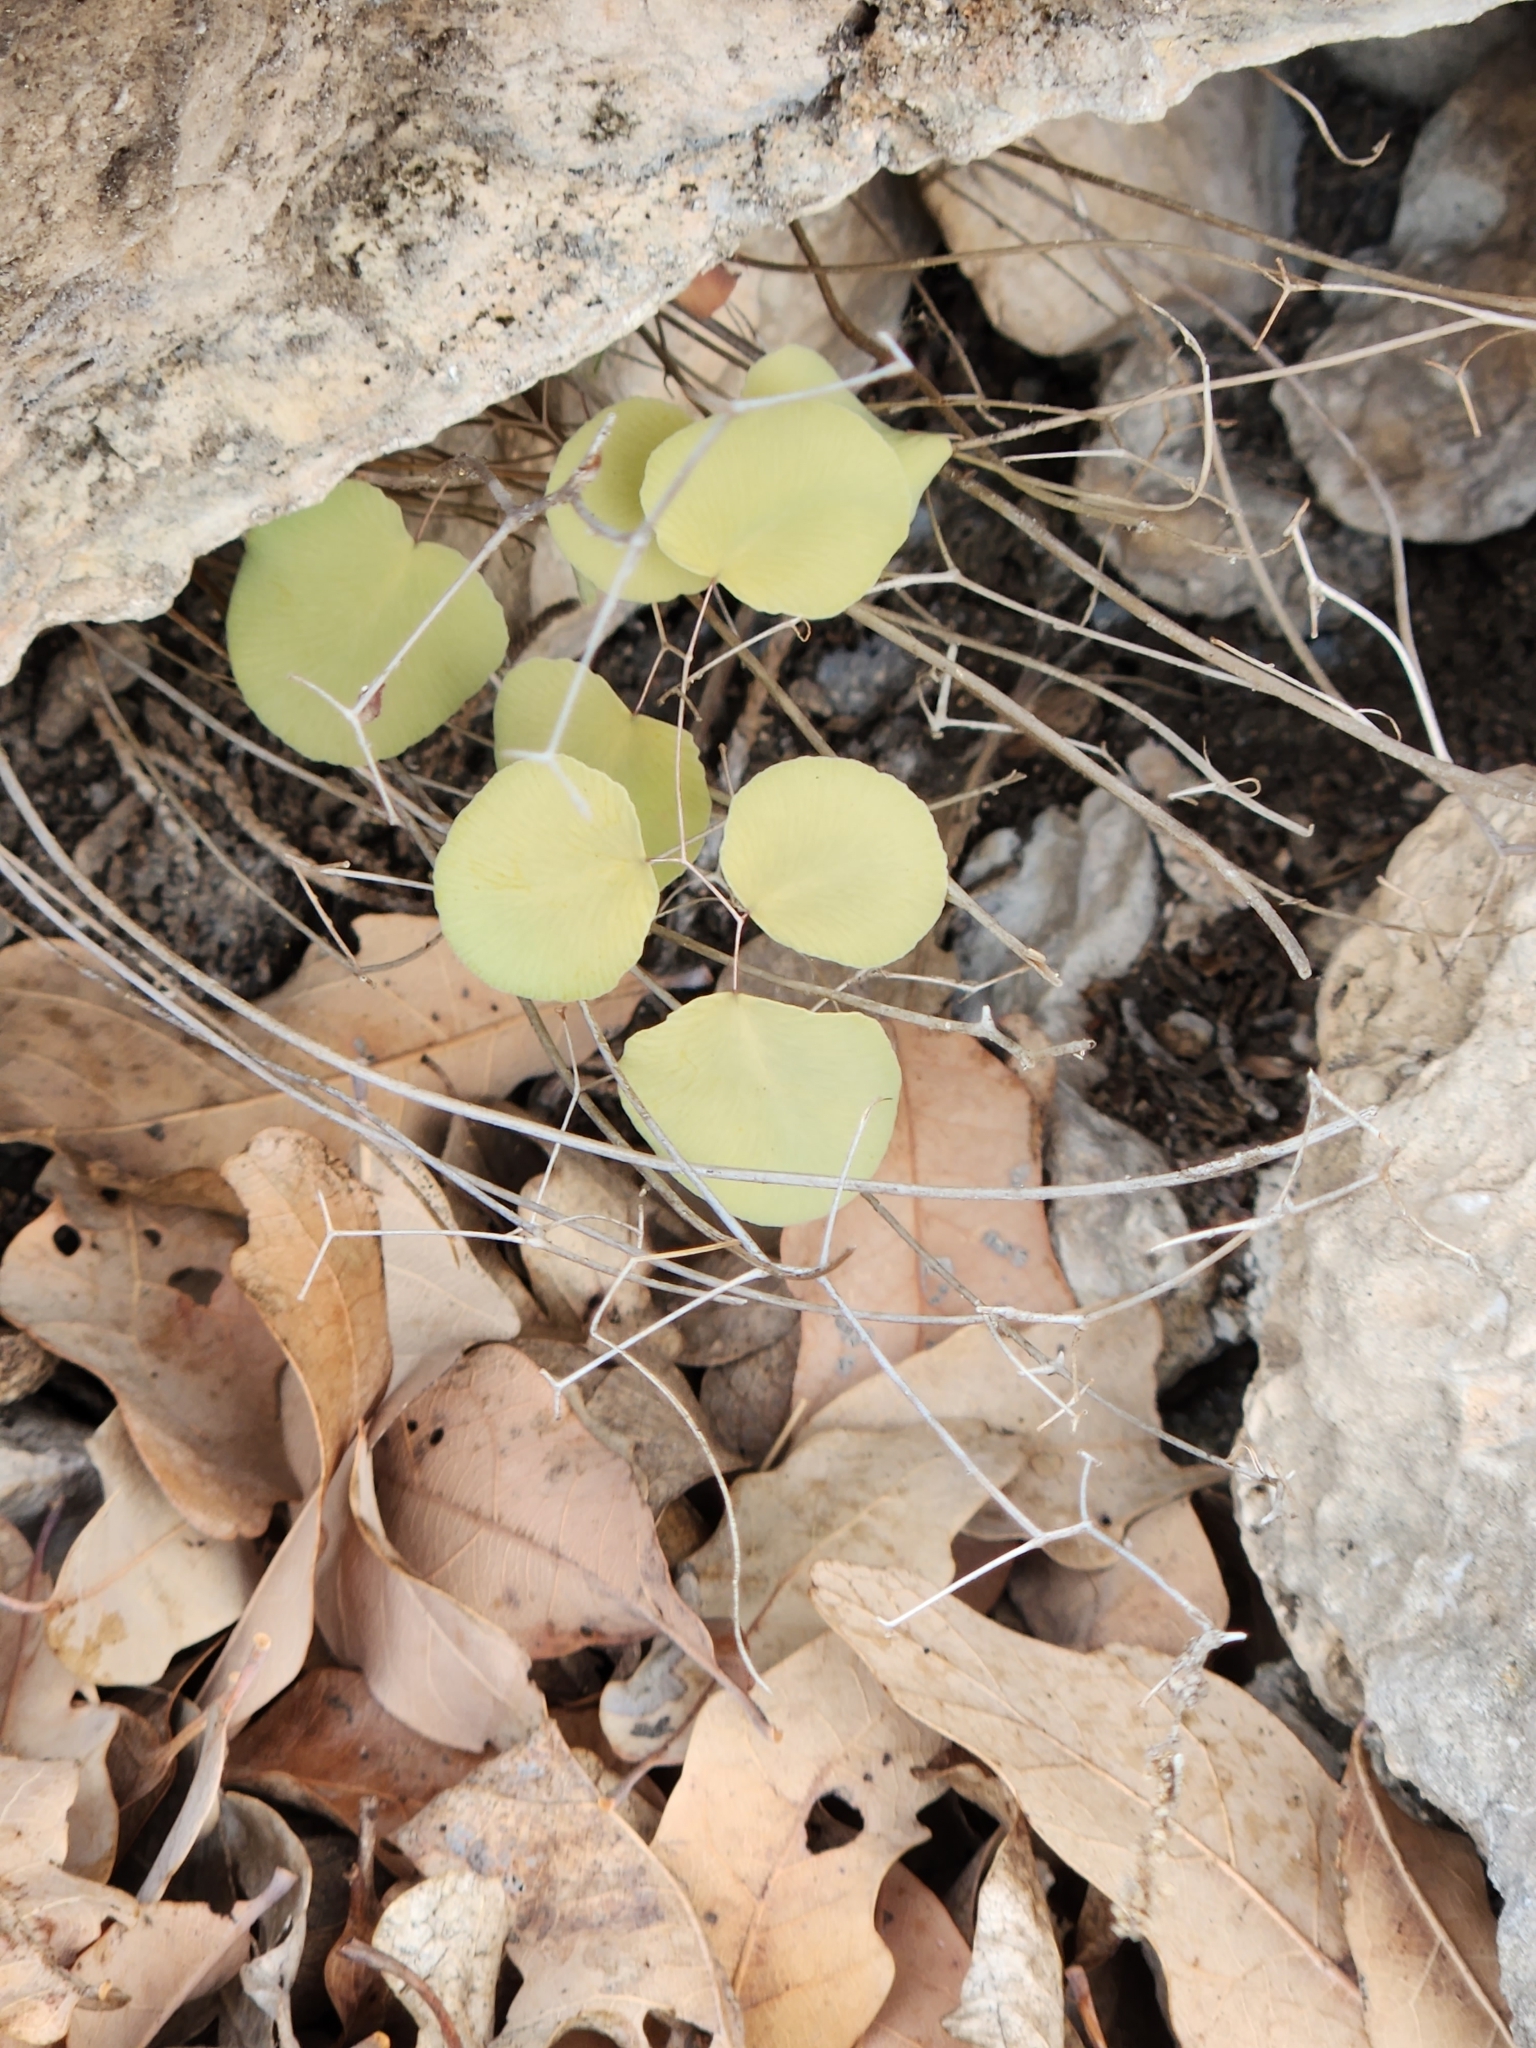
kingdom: Plantae
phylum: Tracheophyta
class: Polypodiopsida
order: Polypodiales
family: Pteridaceae
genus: Pellaea
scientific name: Pellaea ovata
